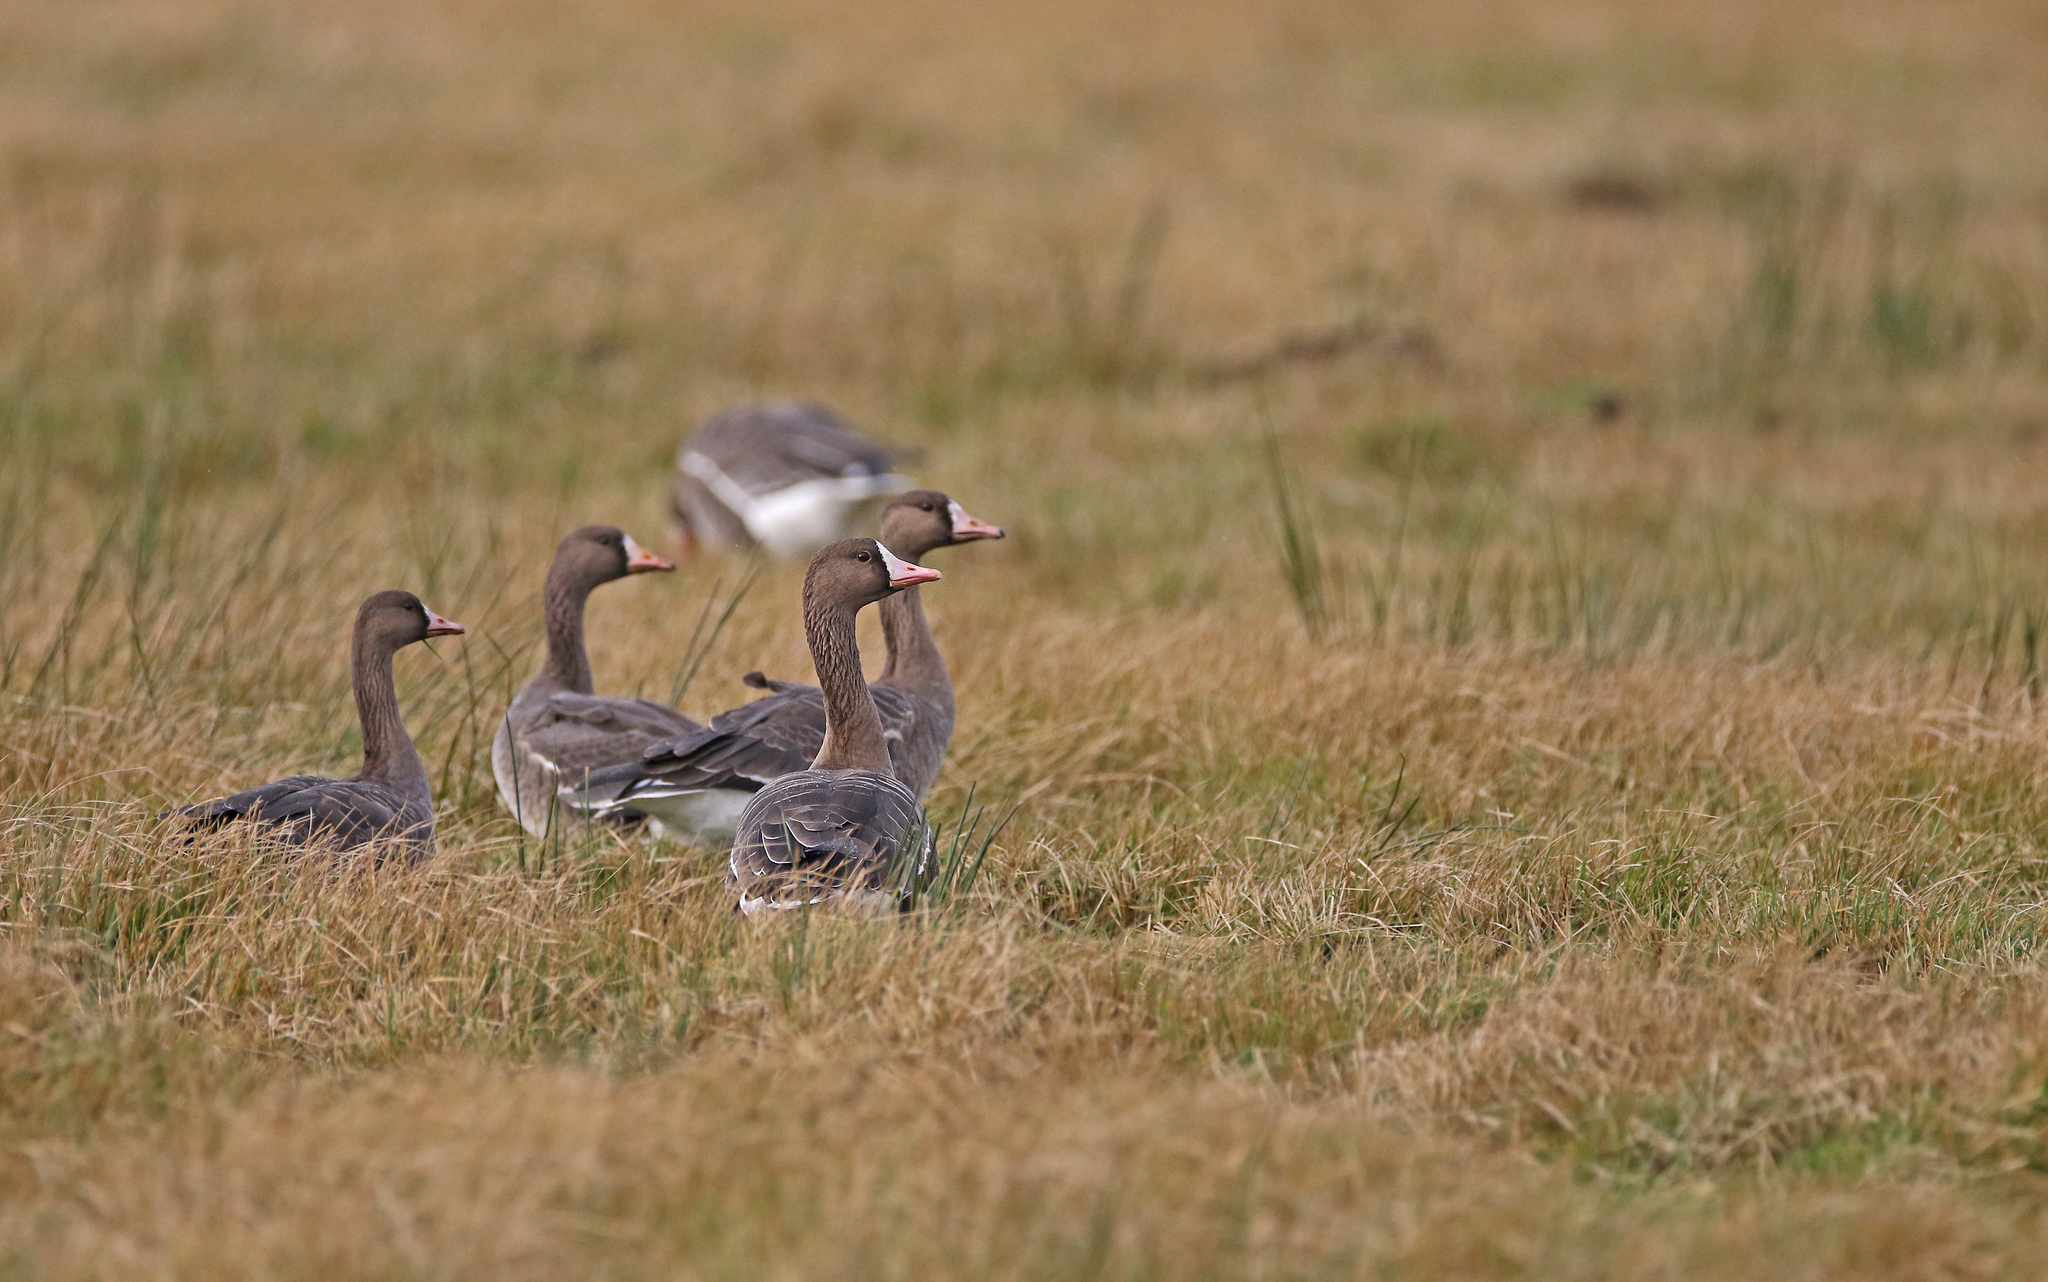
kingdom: Animalia
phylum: Chordata
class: Aves
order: Anseriformes
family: Anatidae
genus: Anser
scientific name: Anser albifrons
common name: Greater white-fronted goose
